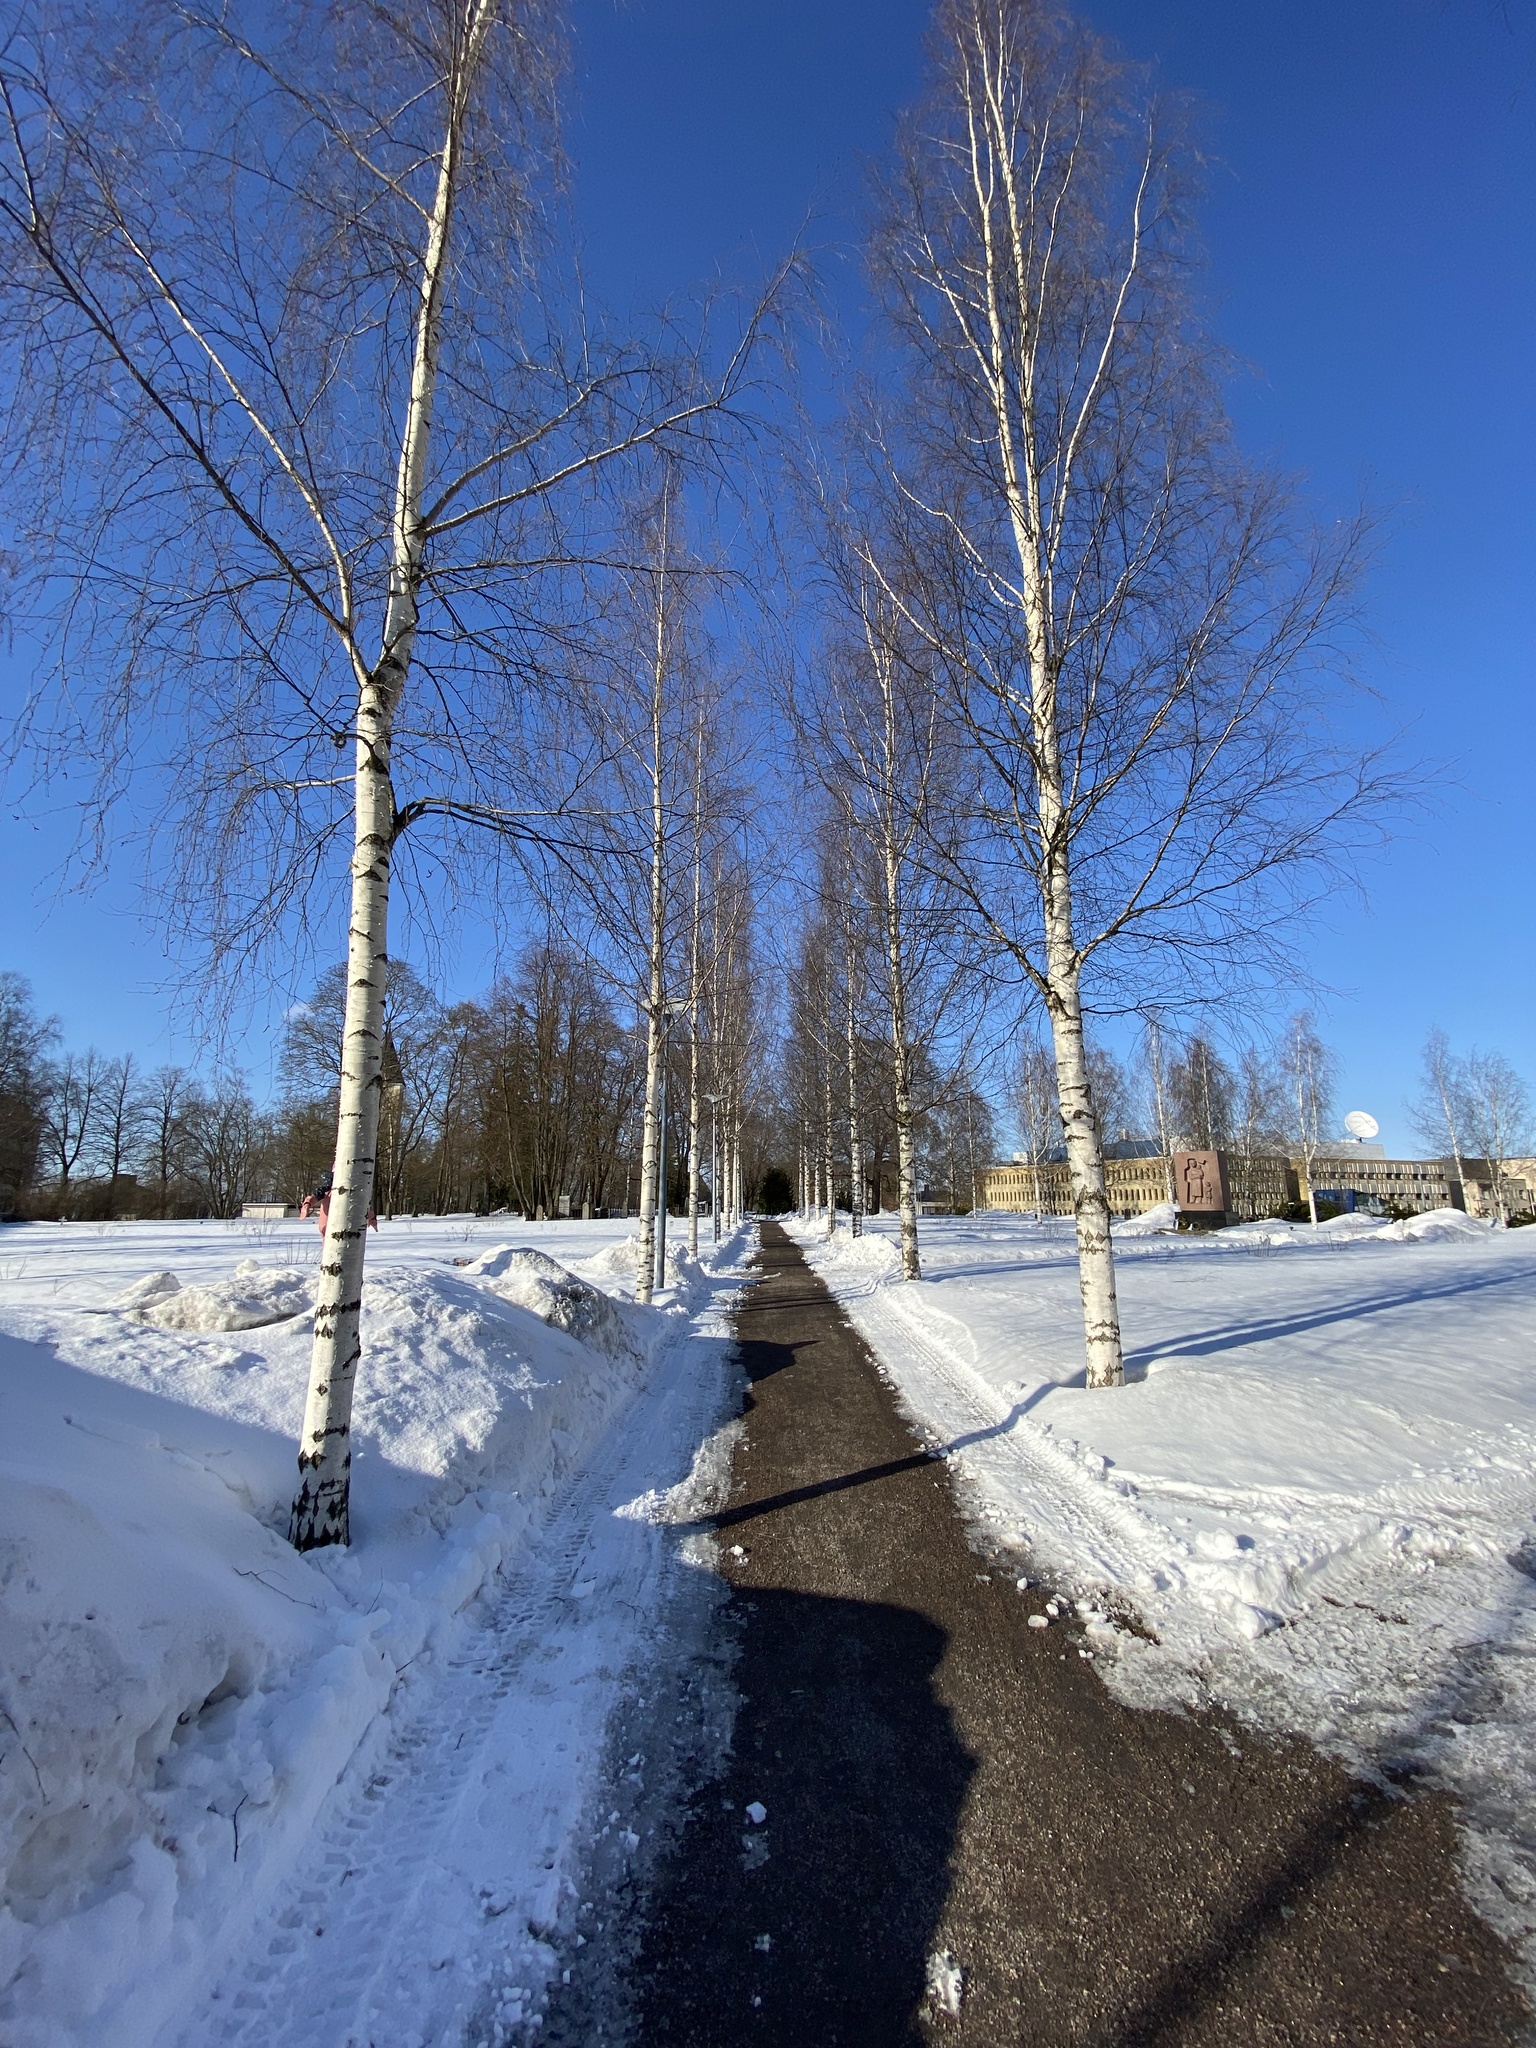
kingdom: Plantae
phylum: Tracheophyta
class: Magnoliopsida
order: Fagales
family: Betulaceae
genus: Betula
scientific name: Betula pendula
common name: Silver birch
